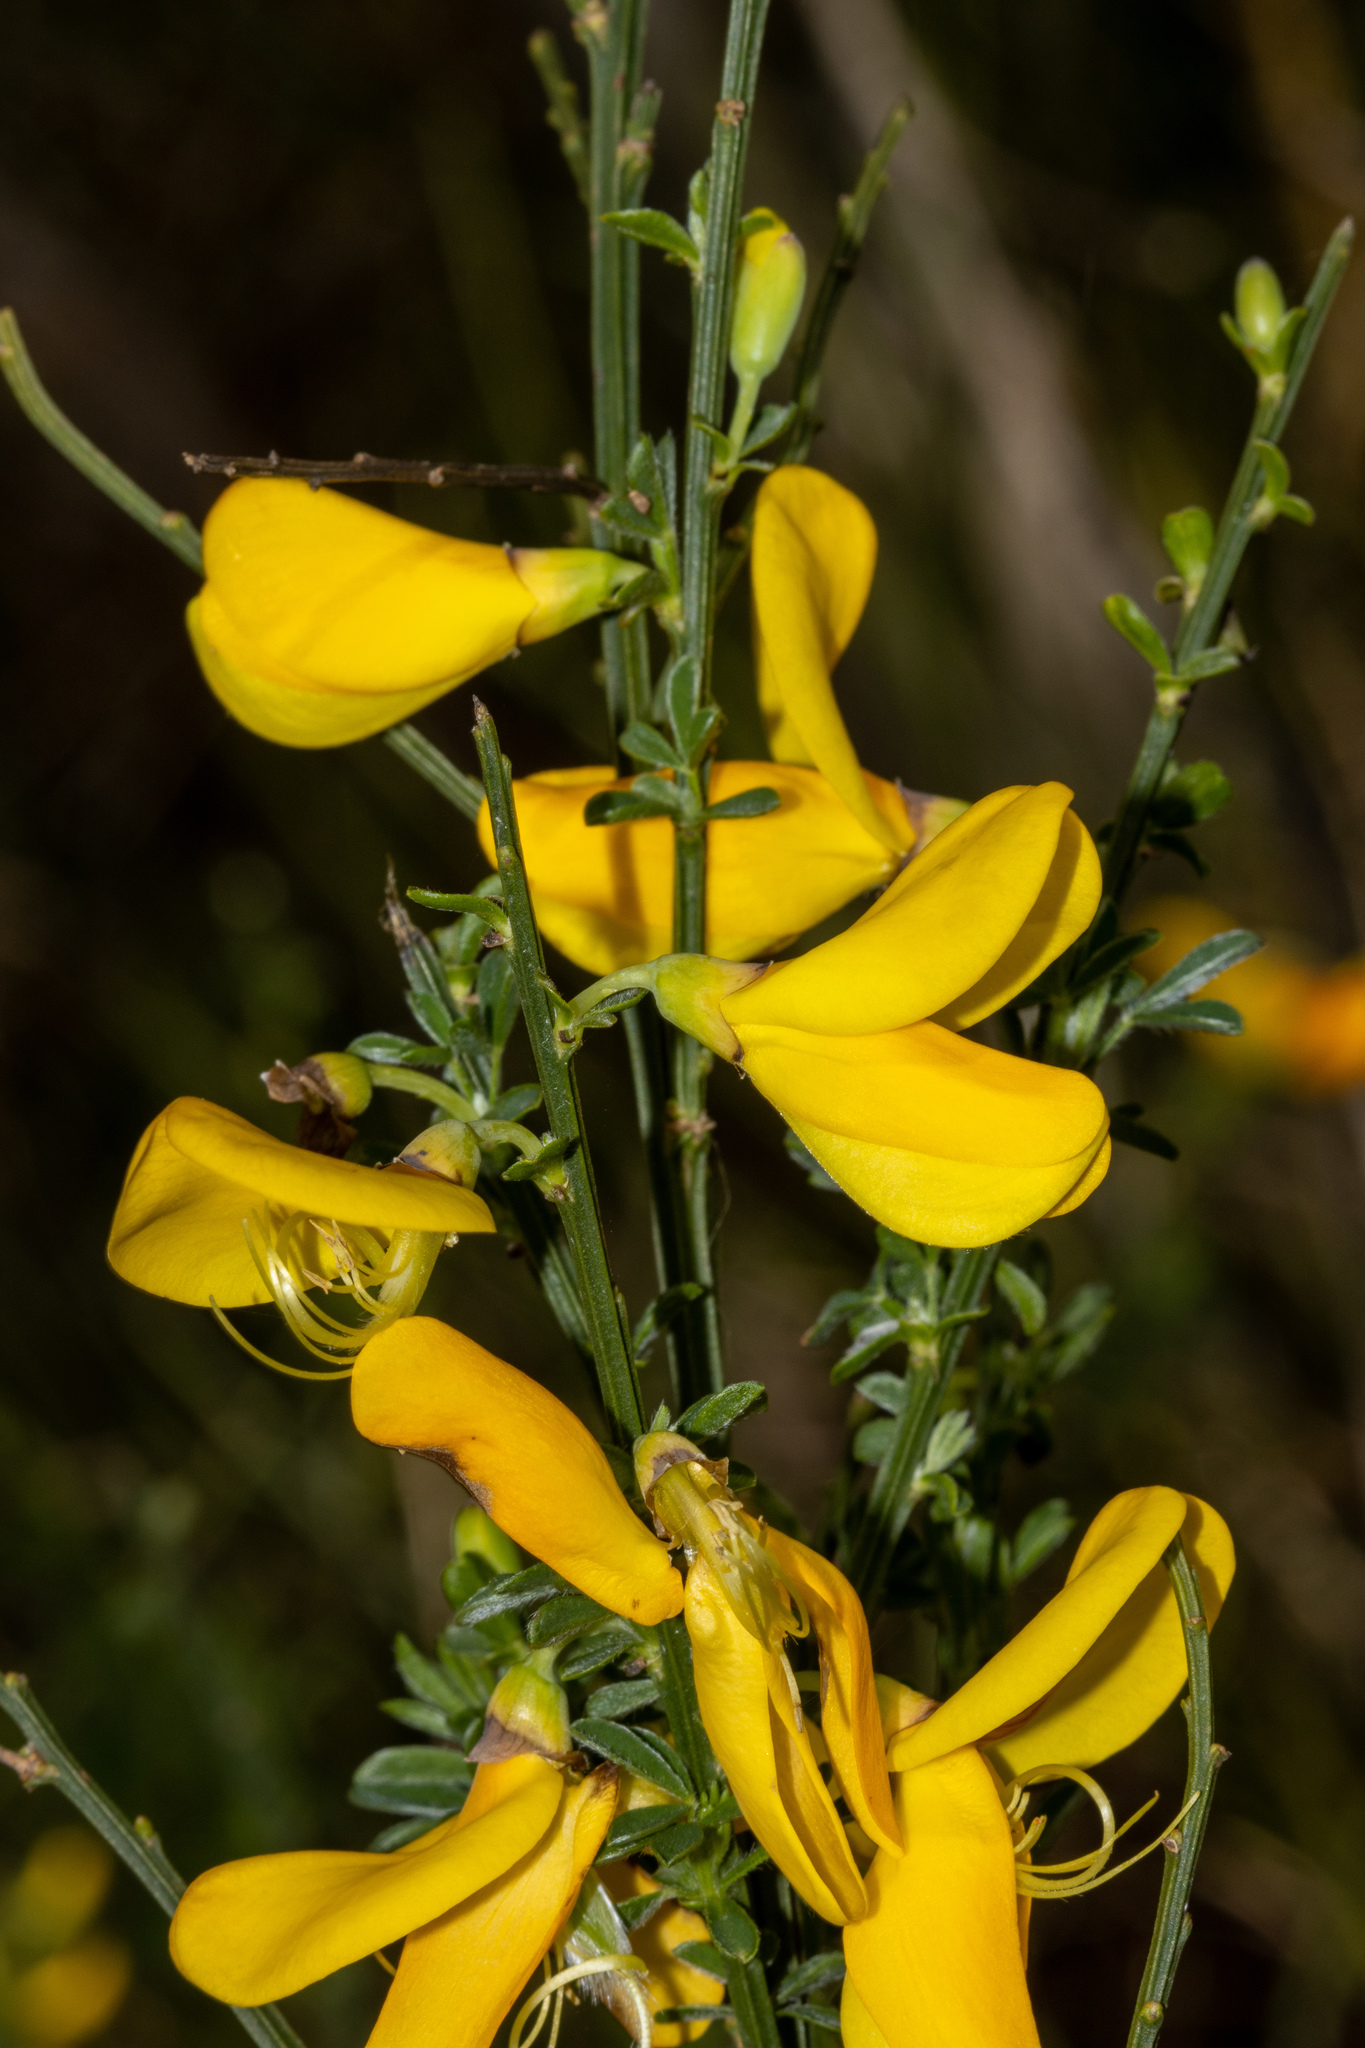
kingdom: Plantae
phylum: Tracheophyta
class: Magnoliopsida
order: Fabales
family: Fabaceae
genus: Cytisus
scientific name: Cytisus scoparius
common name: Scotch broom
